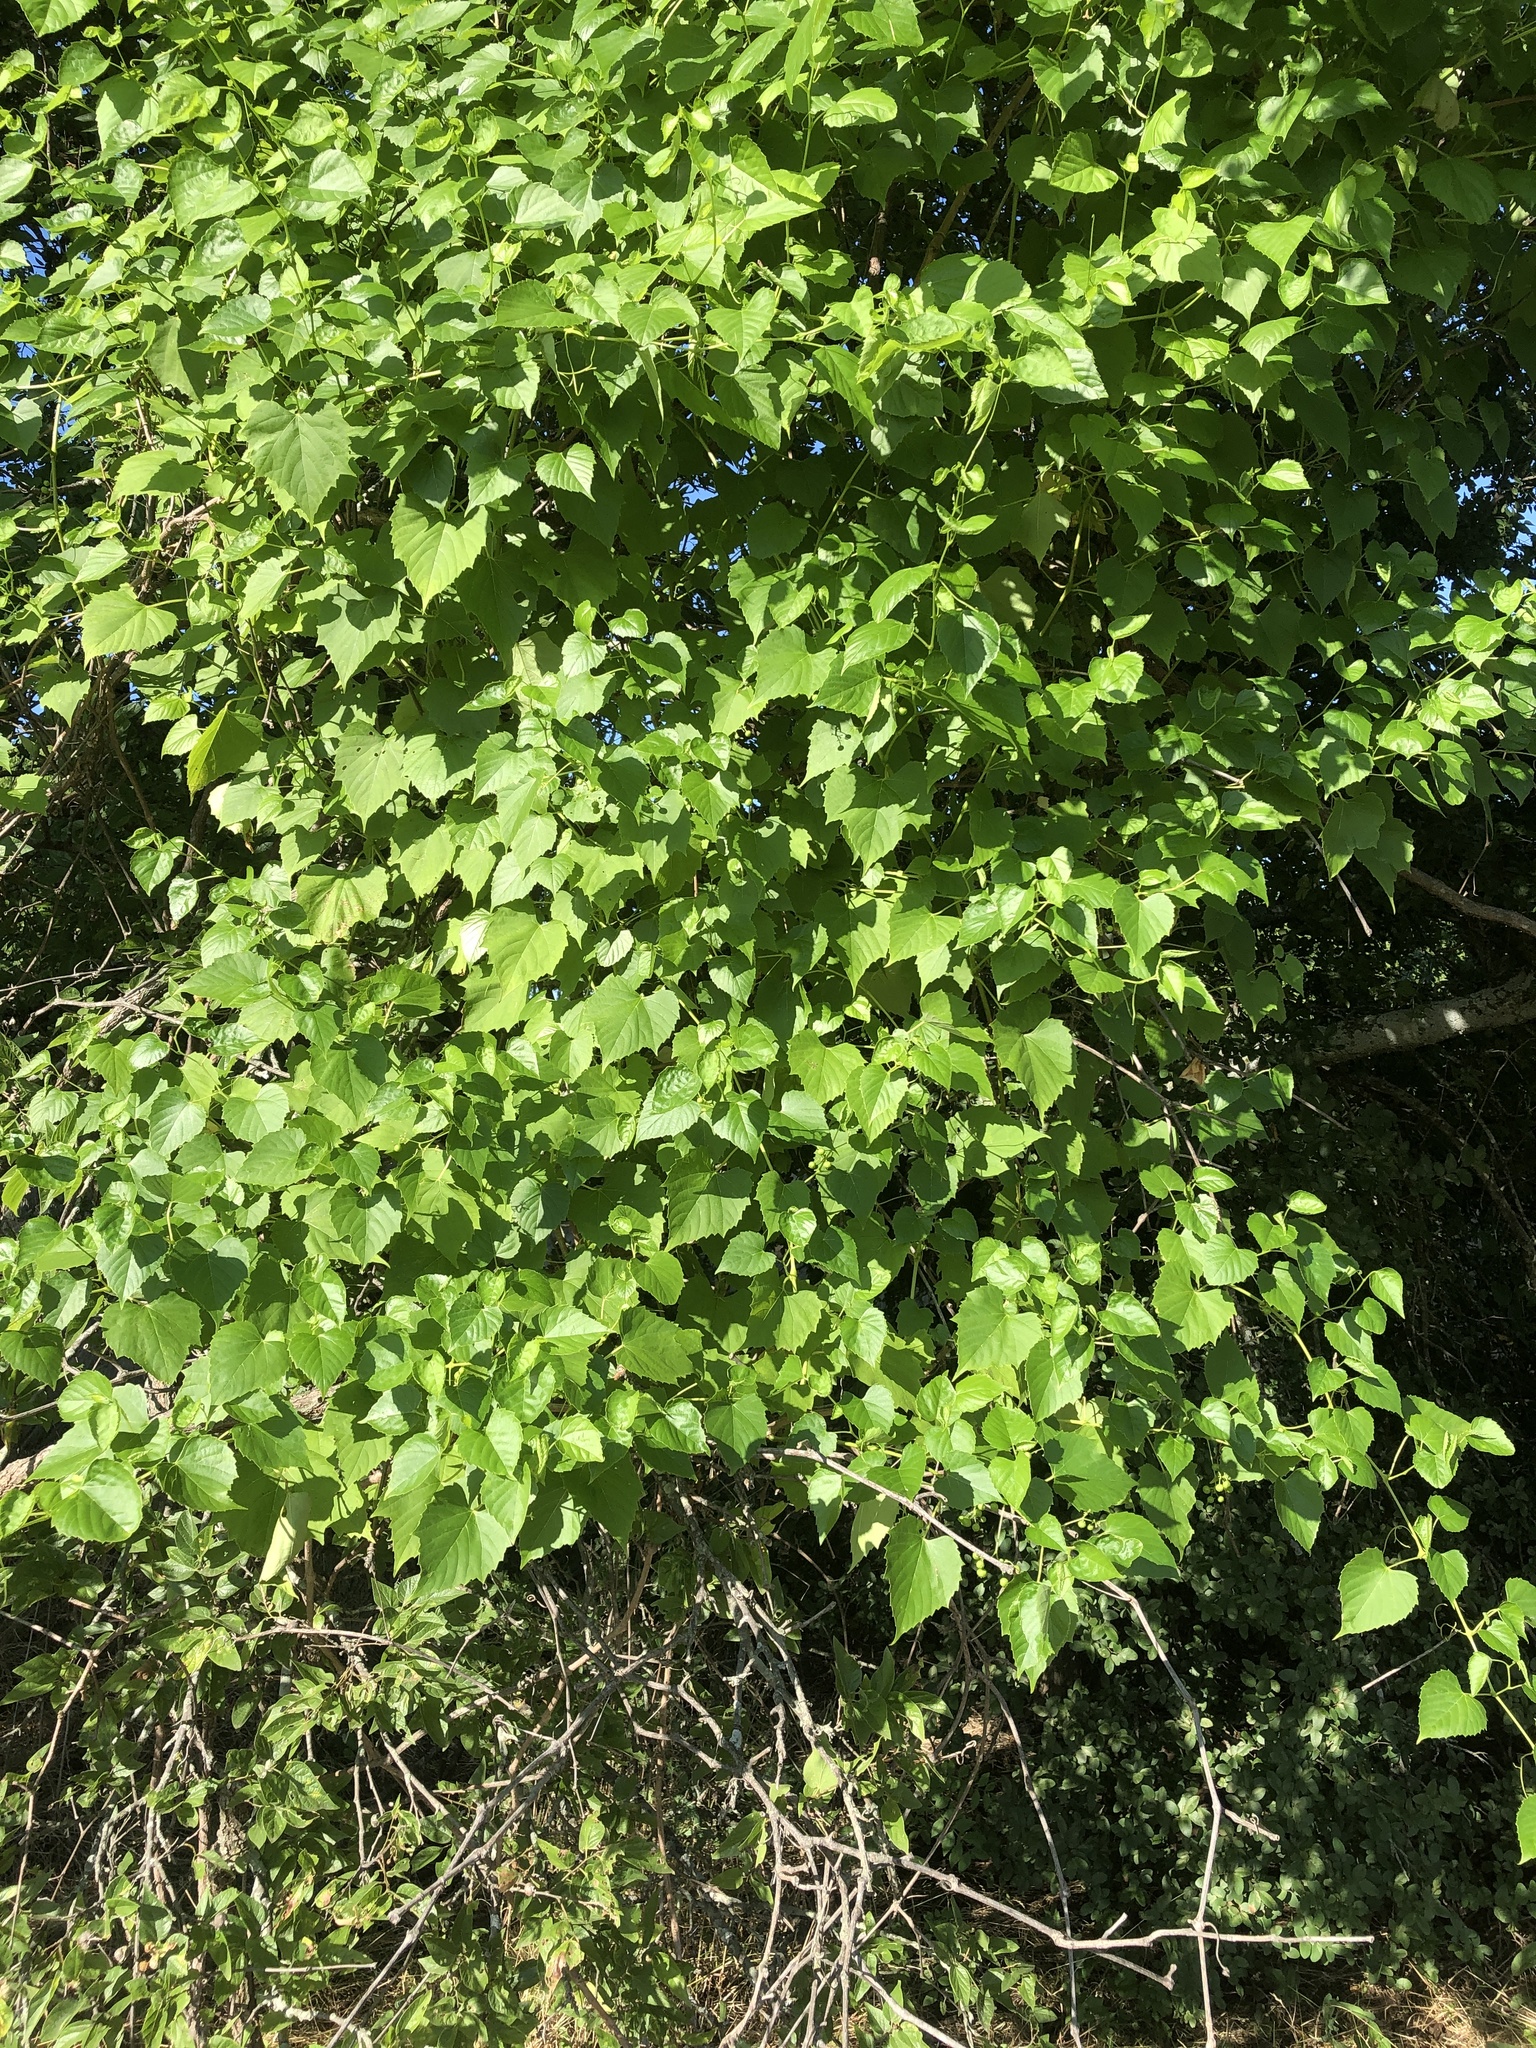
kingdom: Plantae
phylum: Tracheophyta
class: Magnoliopsida
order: Vitales
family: Vitaceae
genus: Ampelopsis
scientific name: Ampelopsis cordata
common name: Heart-leaf ampelopsis
